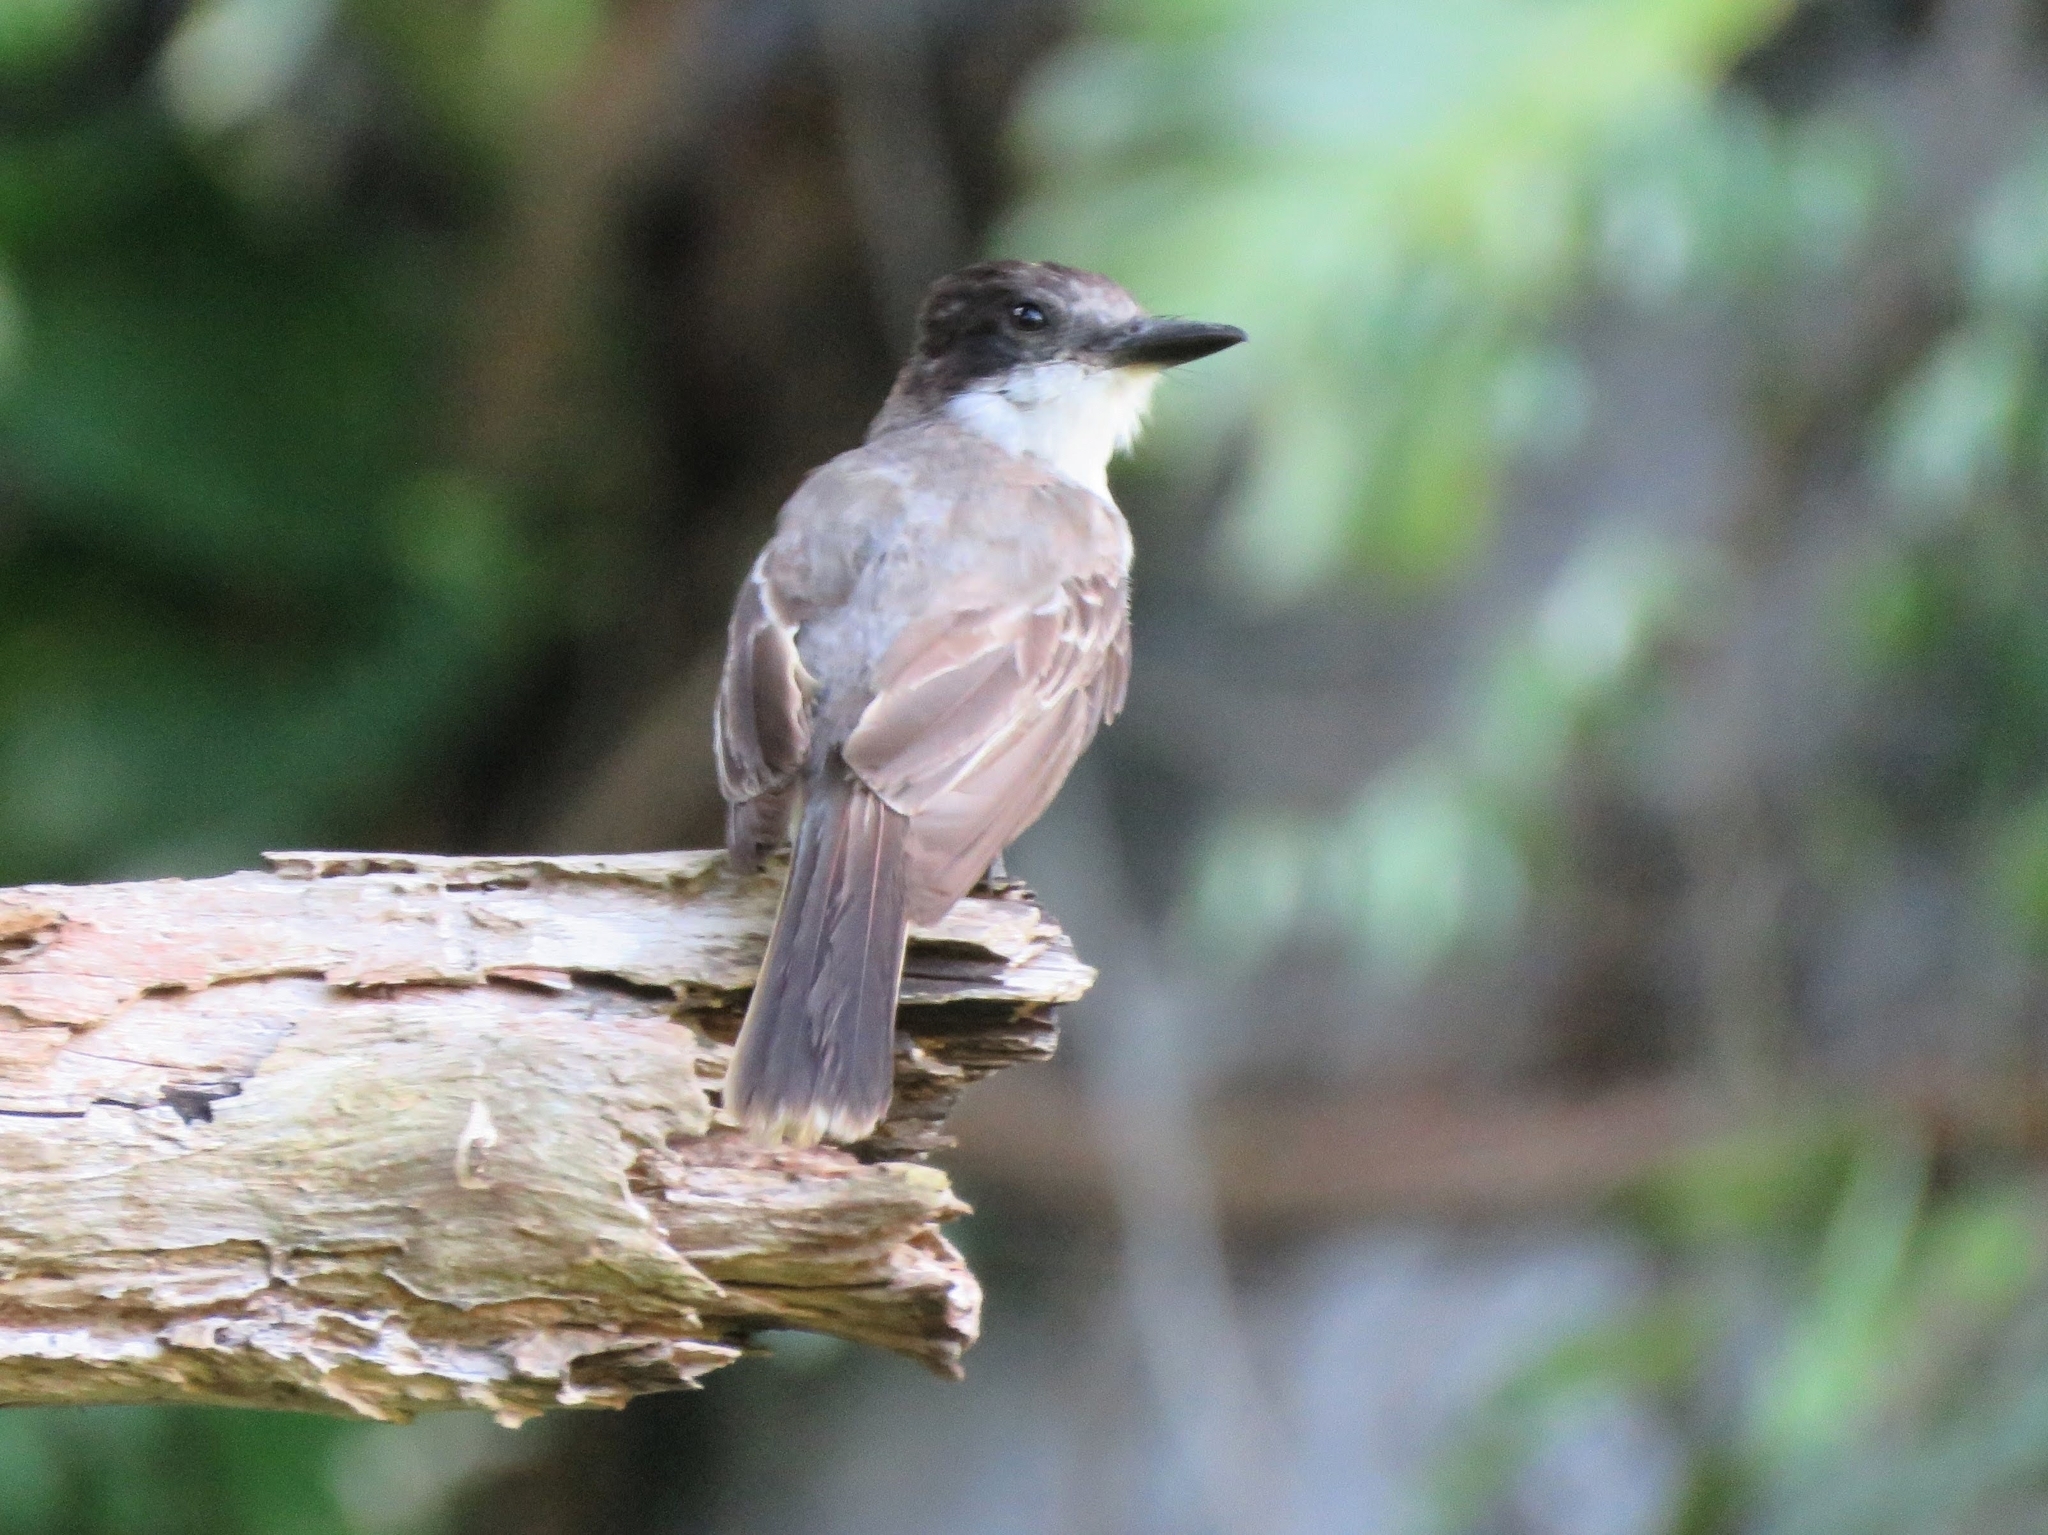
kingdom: Animalia
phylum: Chordata
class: Aves
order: Passeriformes
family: Tyrannidae
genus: Tyrannus
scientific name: Tyrannus caudifasciatus
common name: Loggerhead kingbird
